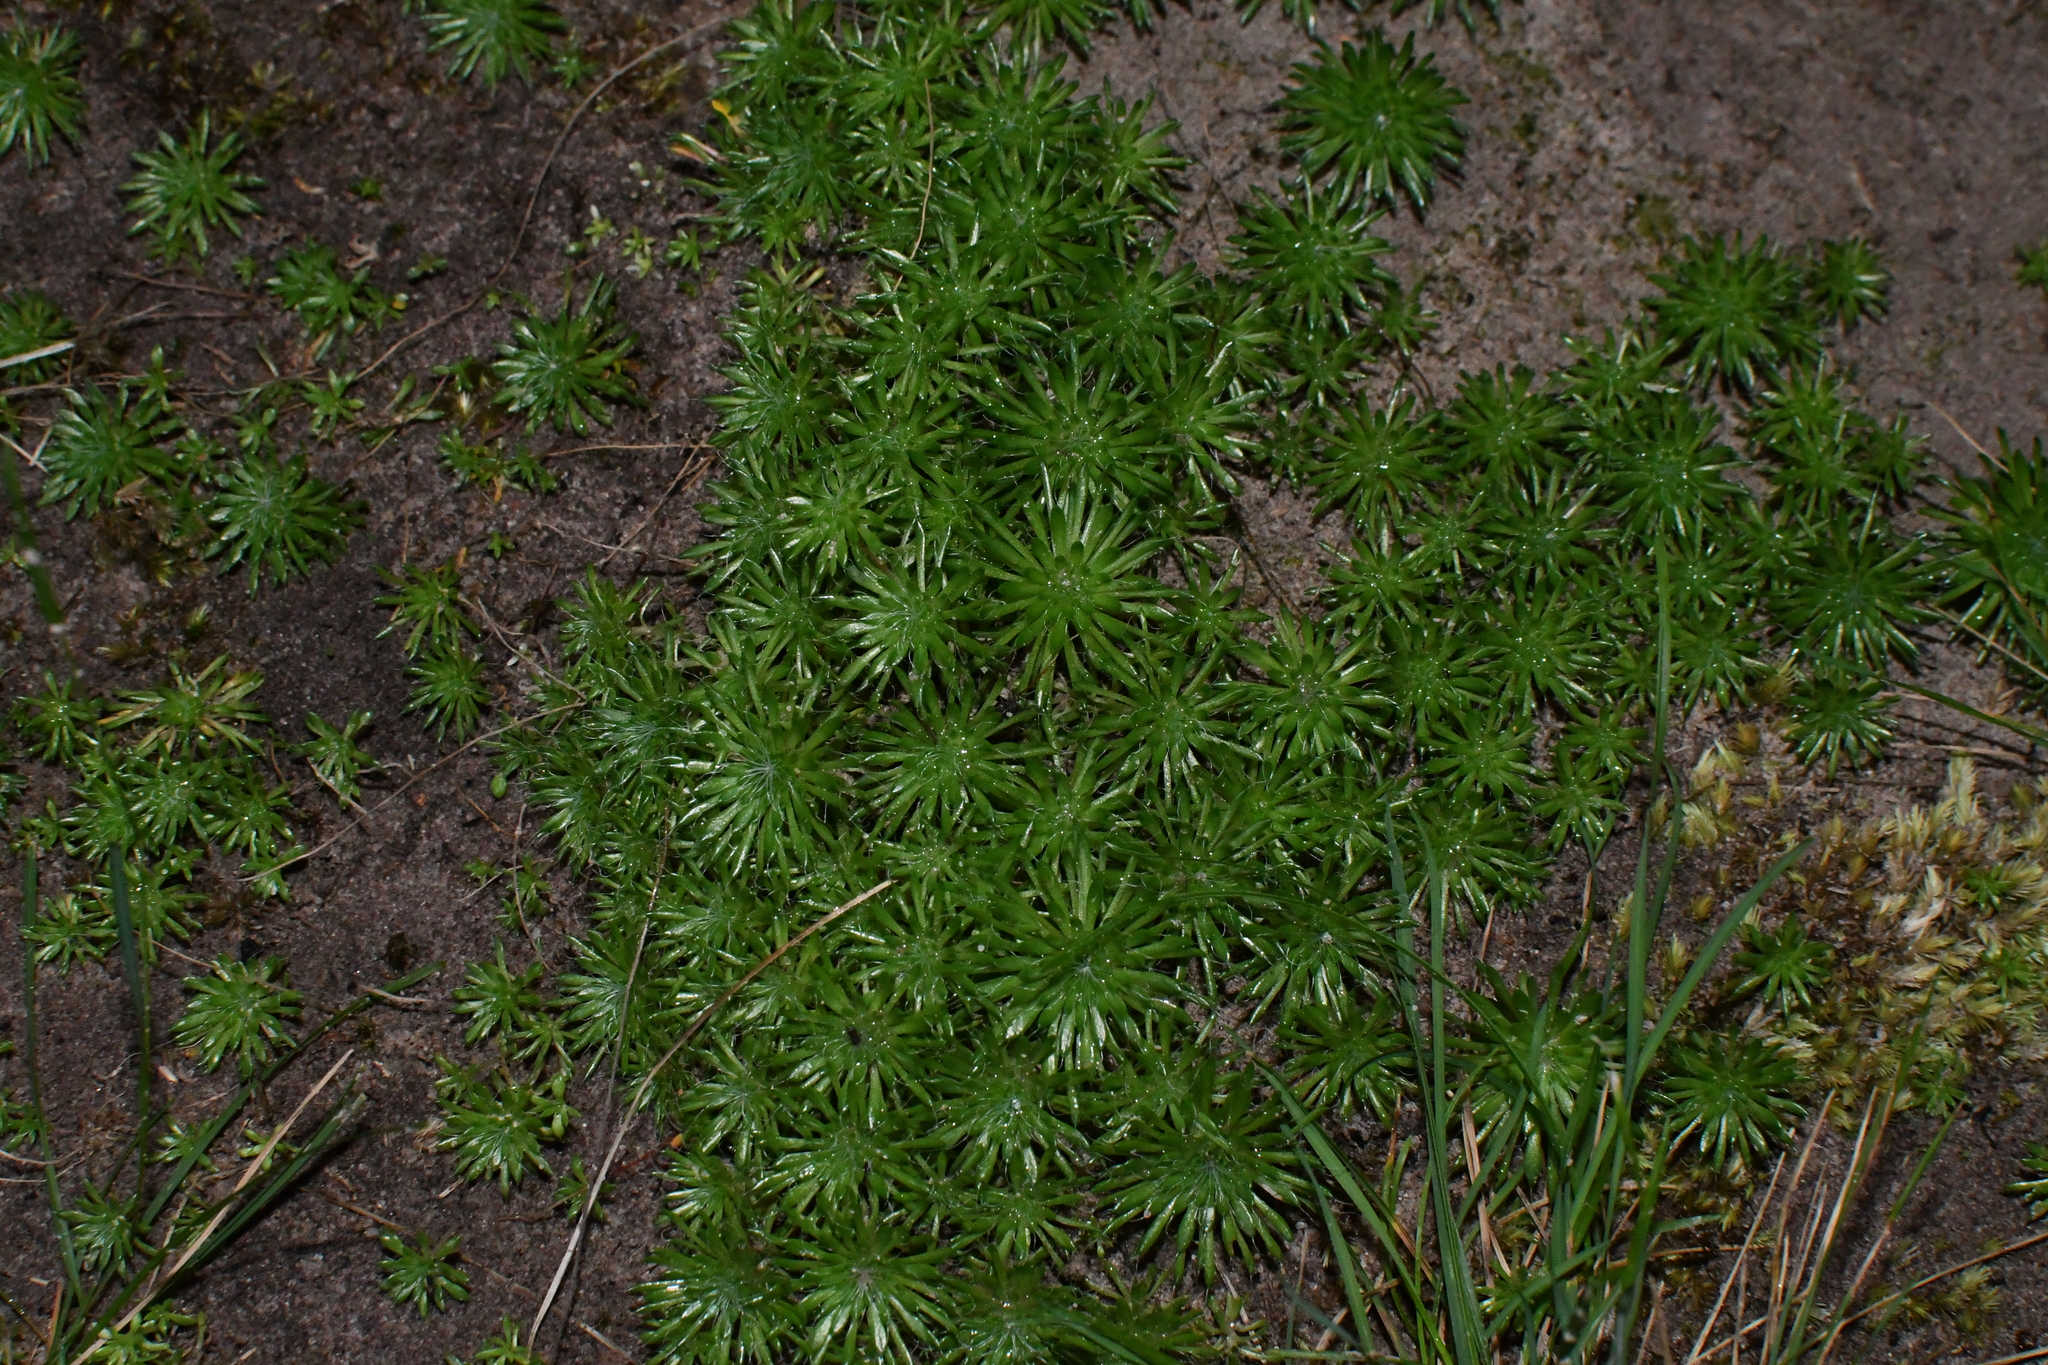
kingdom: Plantae
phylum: Tracheophyta
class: Magnoliopsida
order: Asterales
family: Stylidiaceae
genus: Stylidium
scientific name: Stylidium soboliferum
